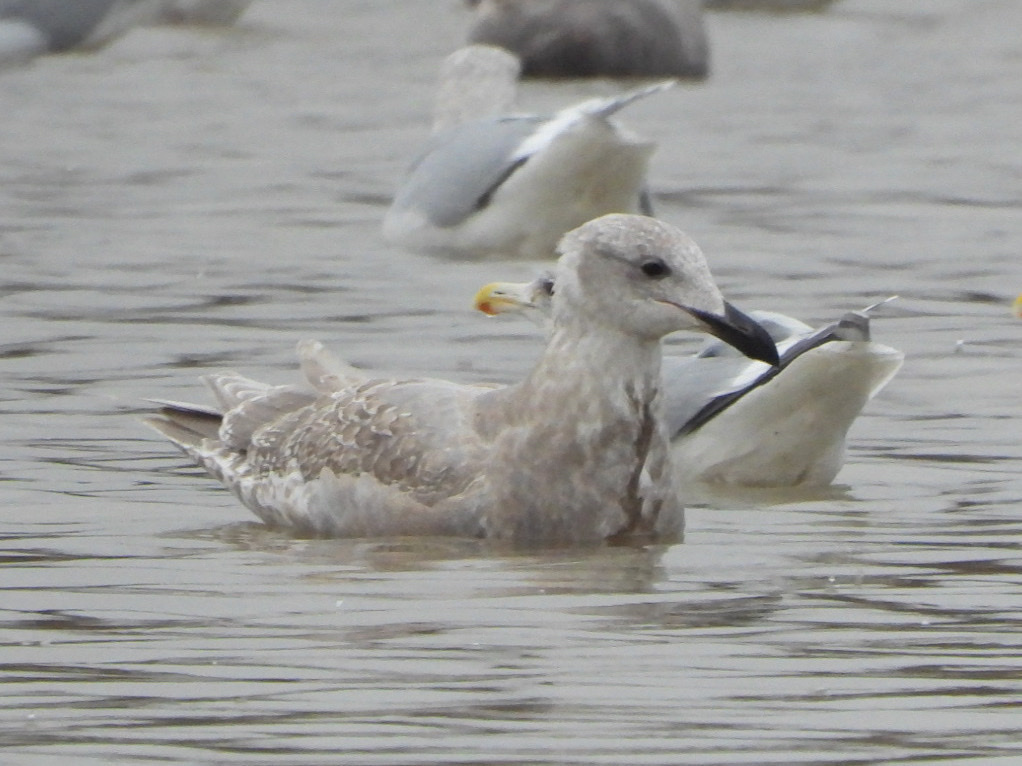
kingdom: Animalia
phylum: Chordata
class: Aves
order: Charadriiformes
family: Laridae
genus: Larus
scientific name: Larus glaucescens
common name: Glaucous-winged gull
